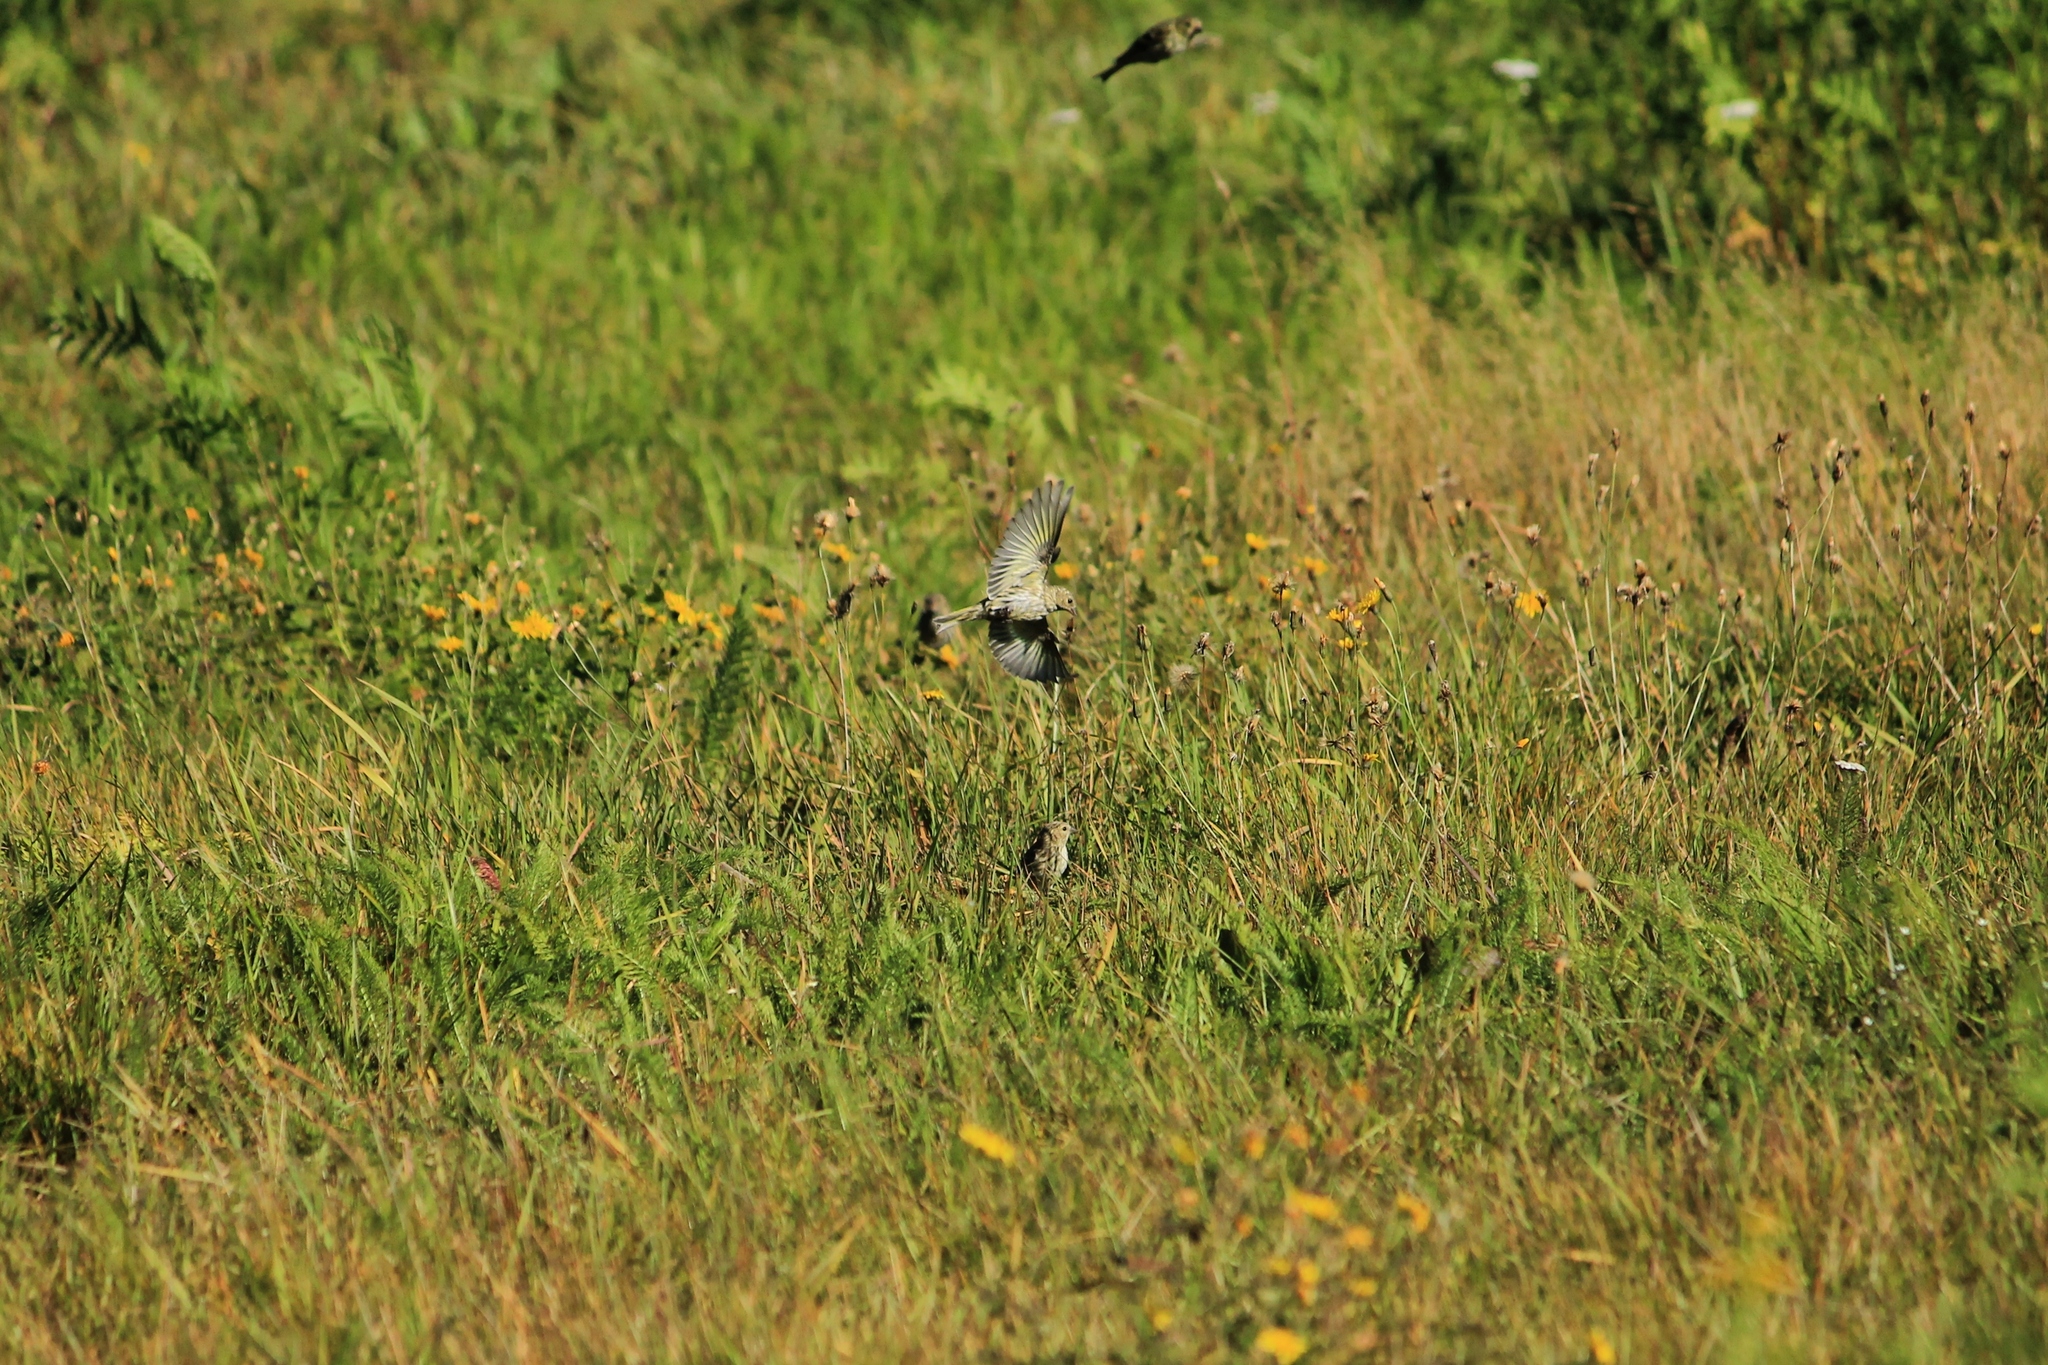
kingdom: Animalia
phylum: Chordata
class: Aves
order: Passeriformes
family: Fringillidae
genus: Spinus
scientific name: Spinus spinus
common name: Eurasian siskin
